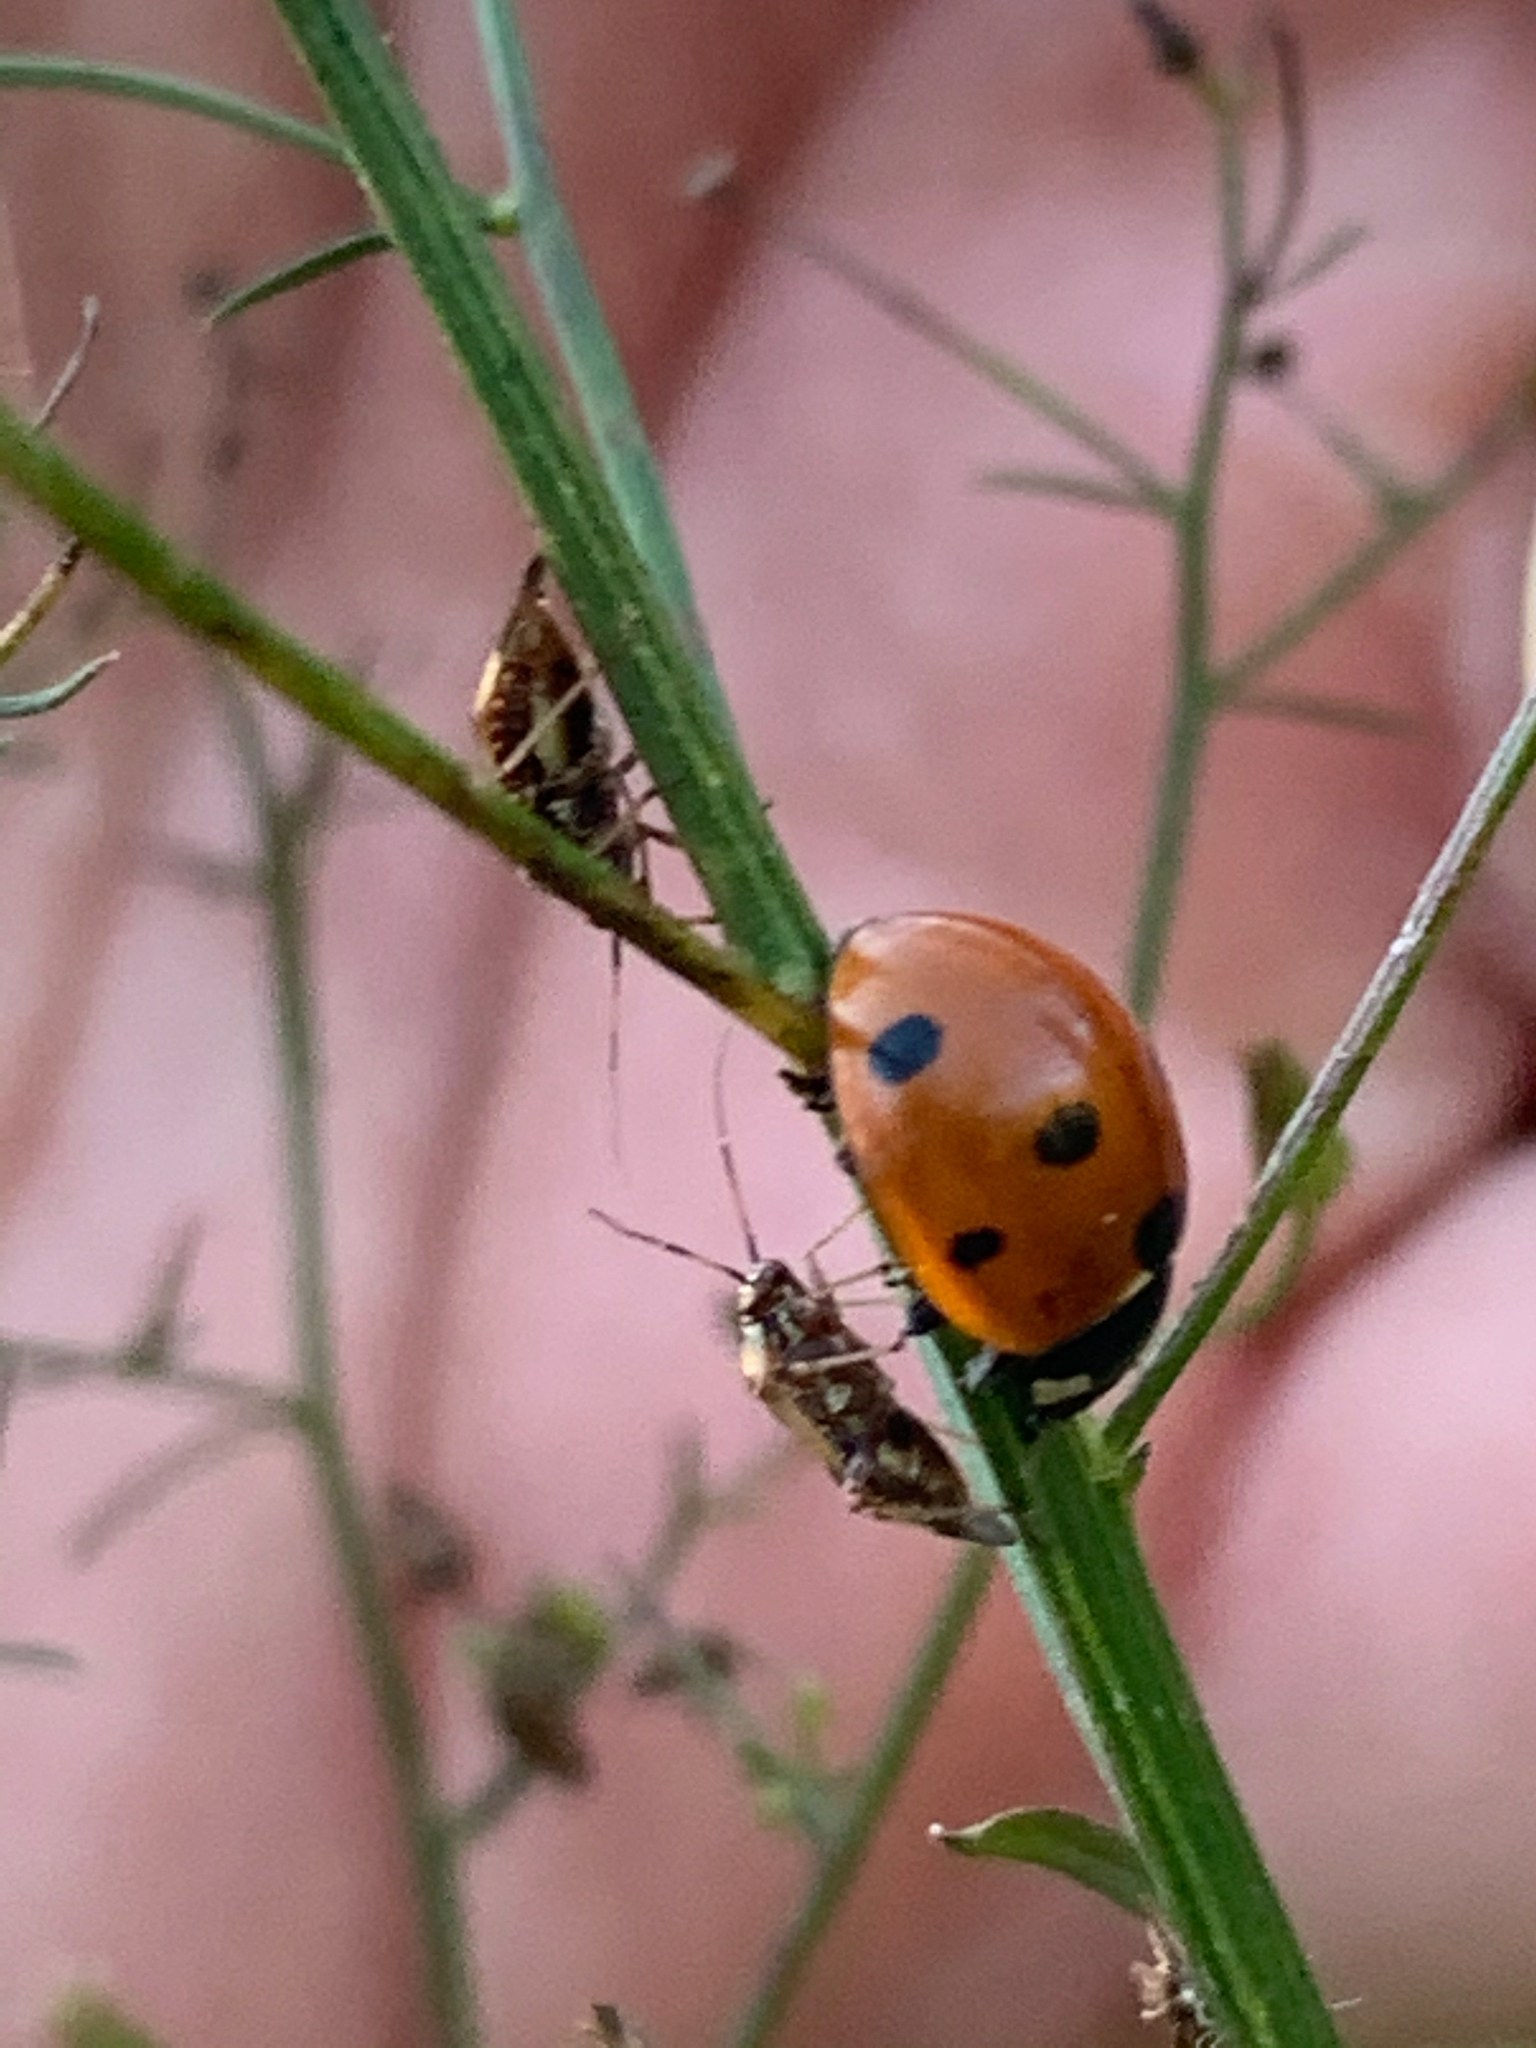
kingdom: Animalia
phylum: Arthropoda
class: Insecta
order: Coleoptera
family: Coccinellidae
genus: Coccinella
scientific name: Coccinella septempunctata
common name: Sevenspotted lady beetle
